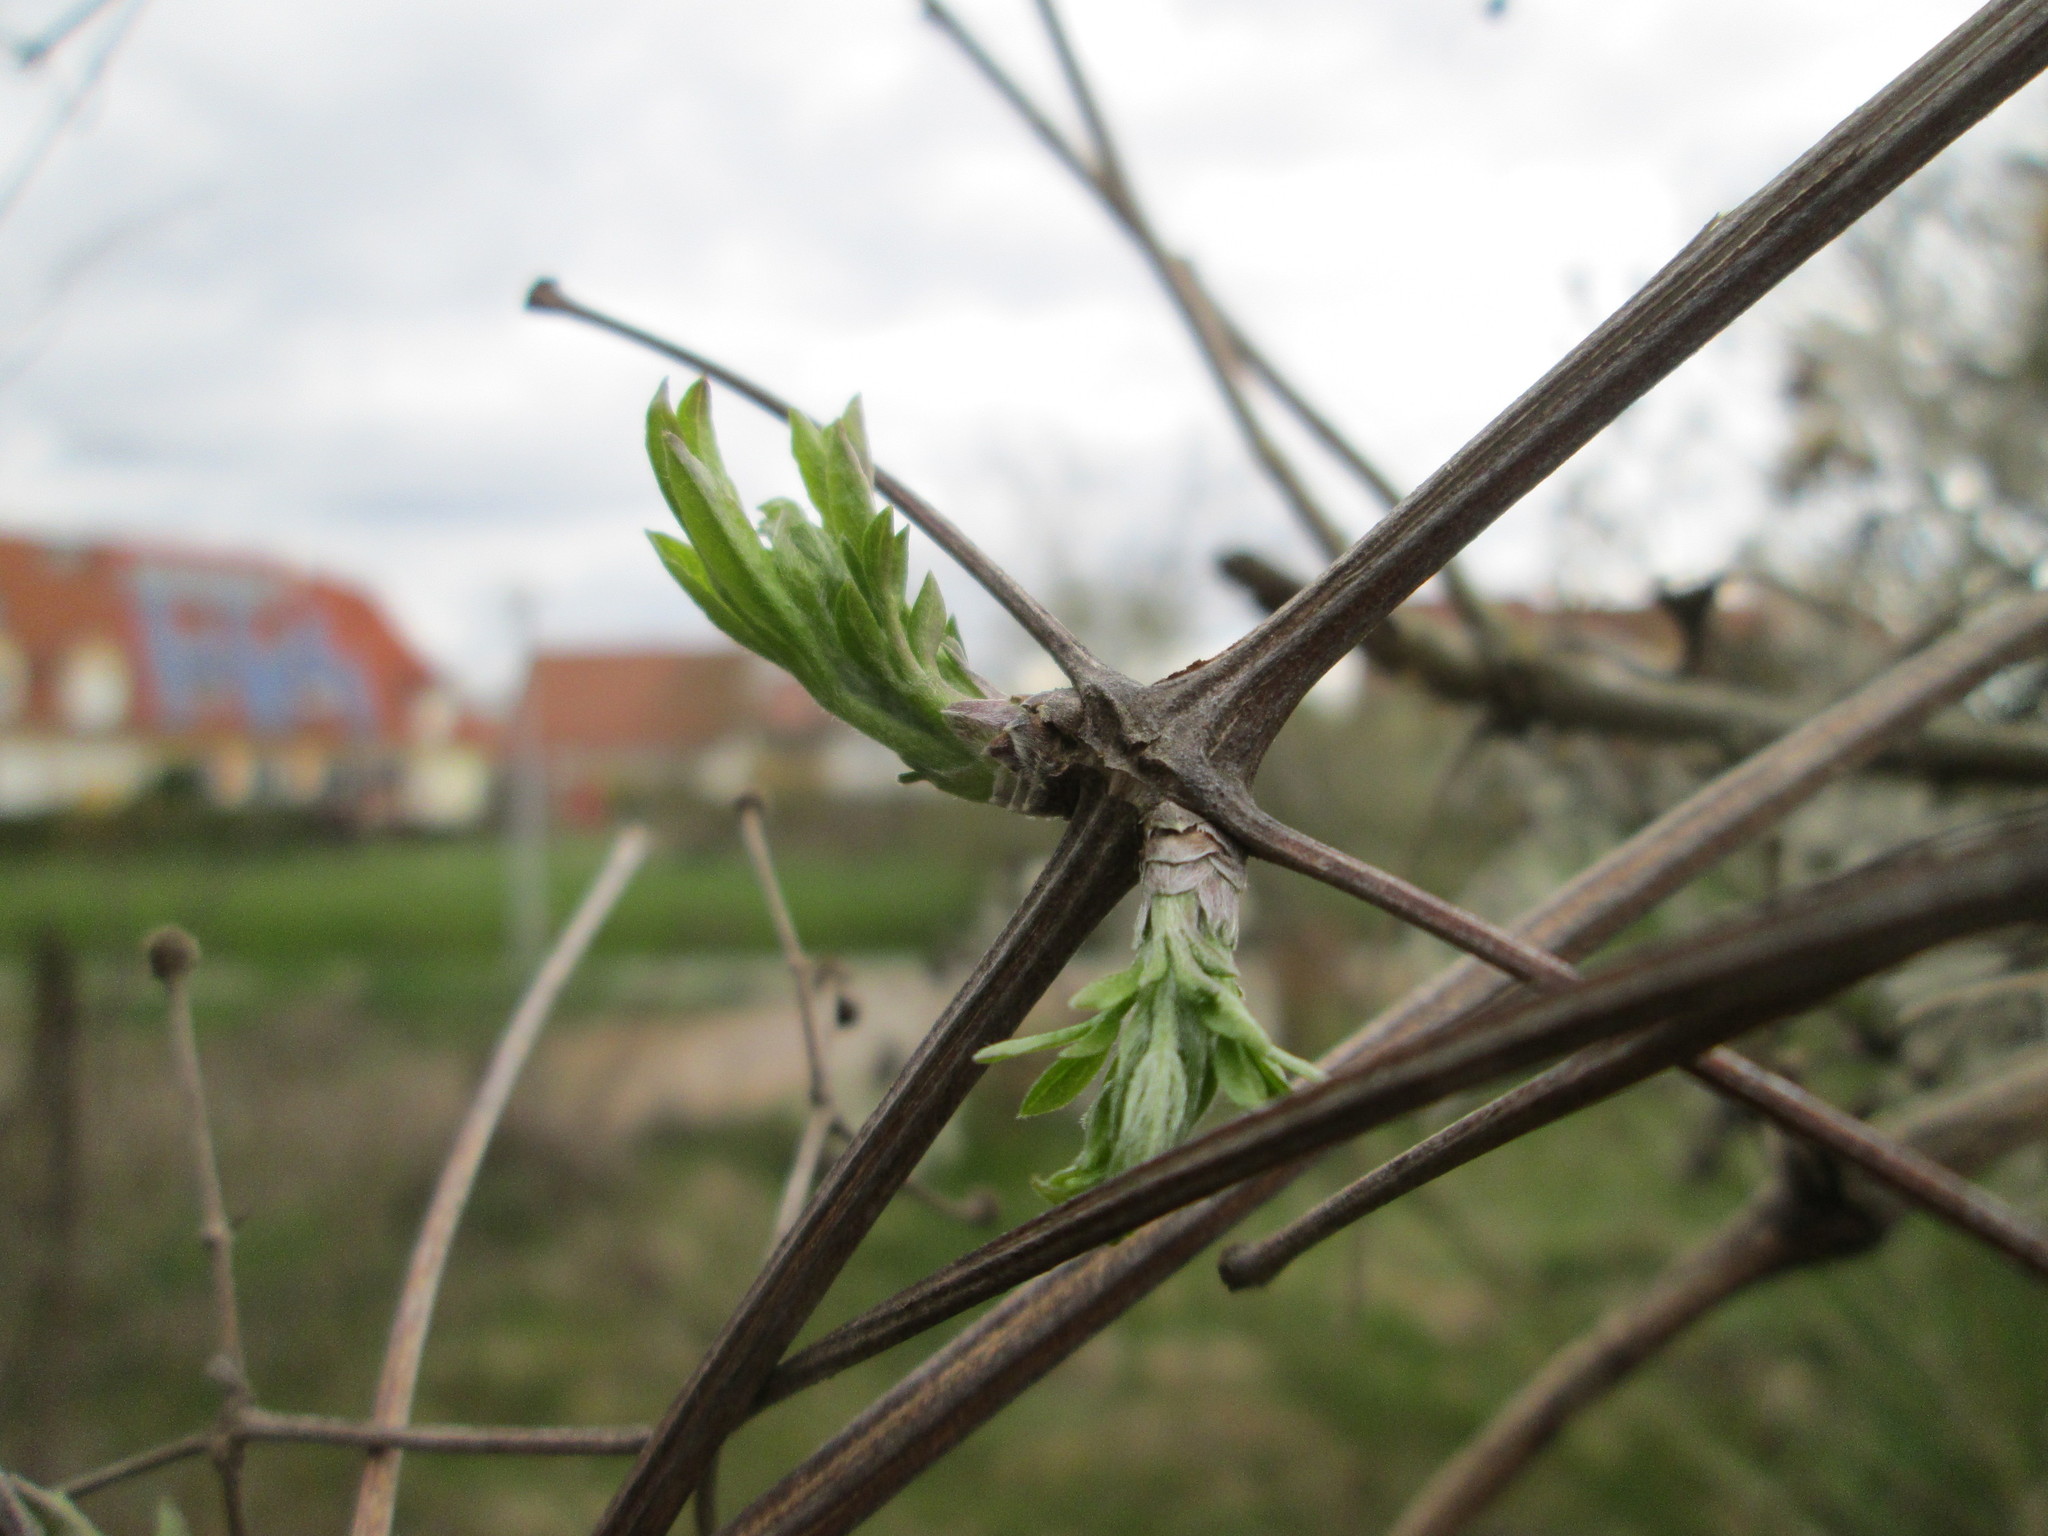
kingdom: Plantae
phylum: Tracheophyta
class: Magnoliopsida
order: Ranunculales
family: Ranunculaceae
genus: Clematis
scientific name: Clematis vitalba
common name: Evergreen clematis
